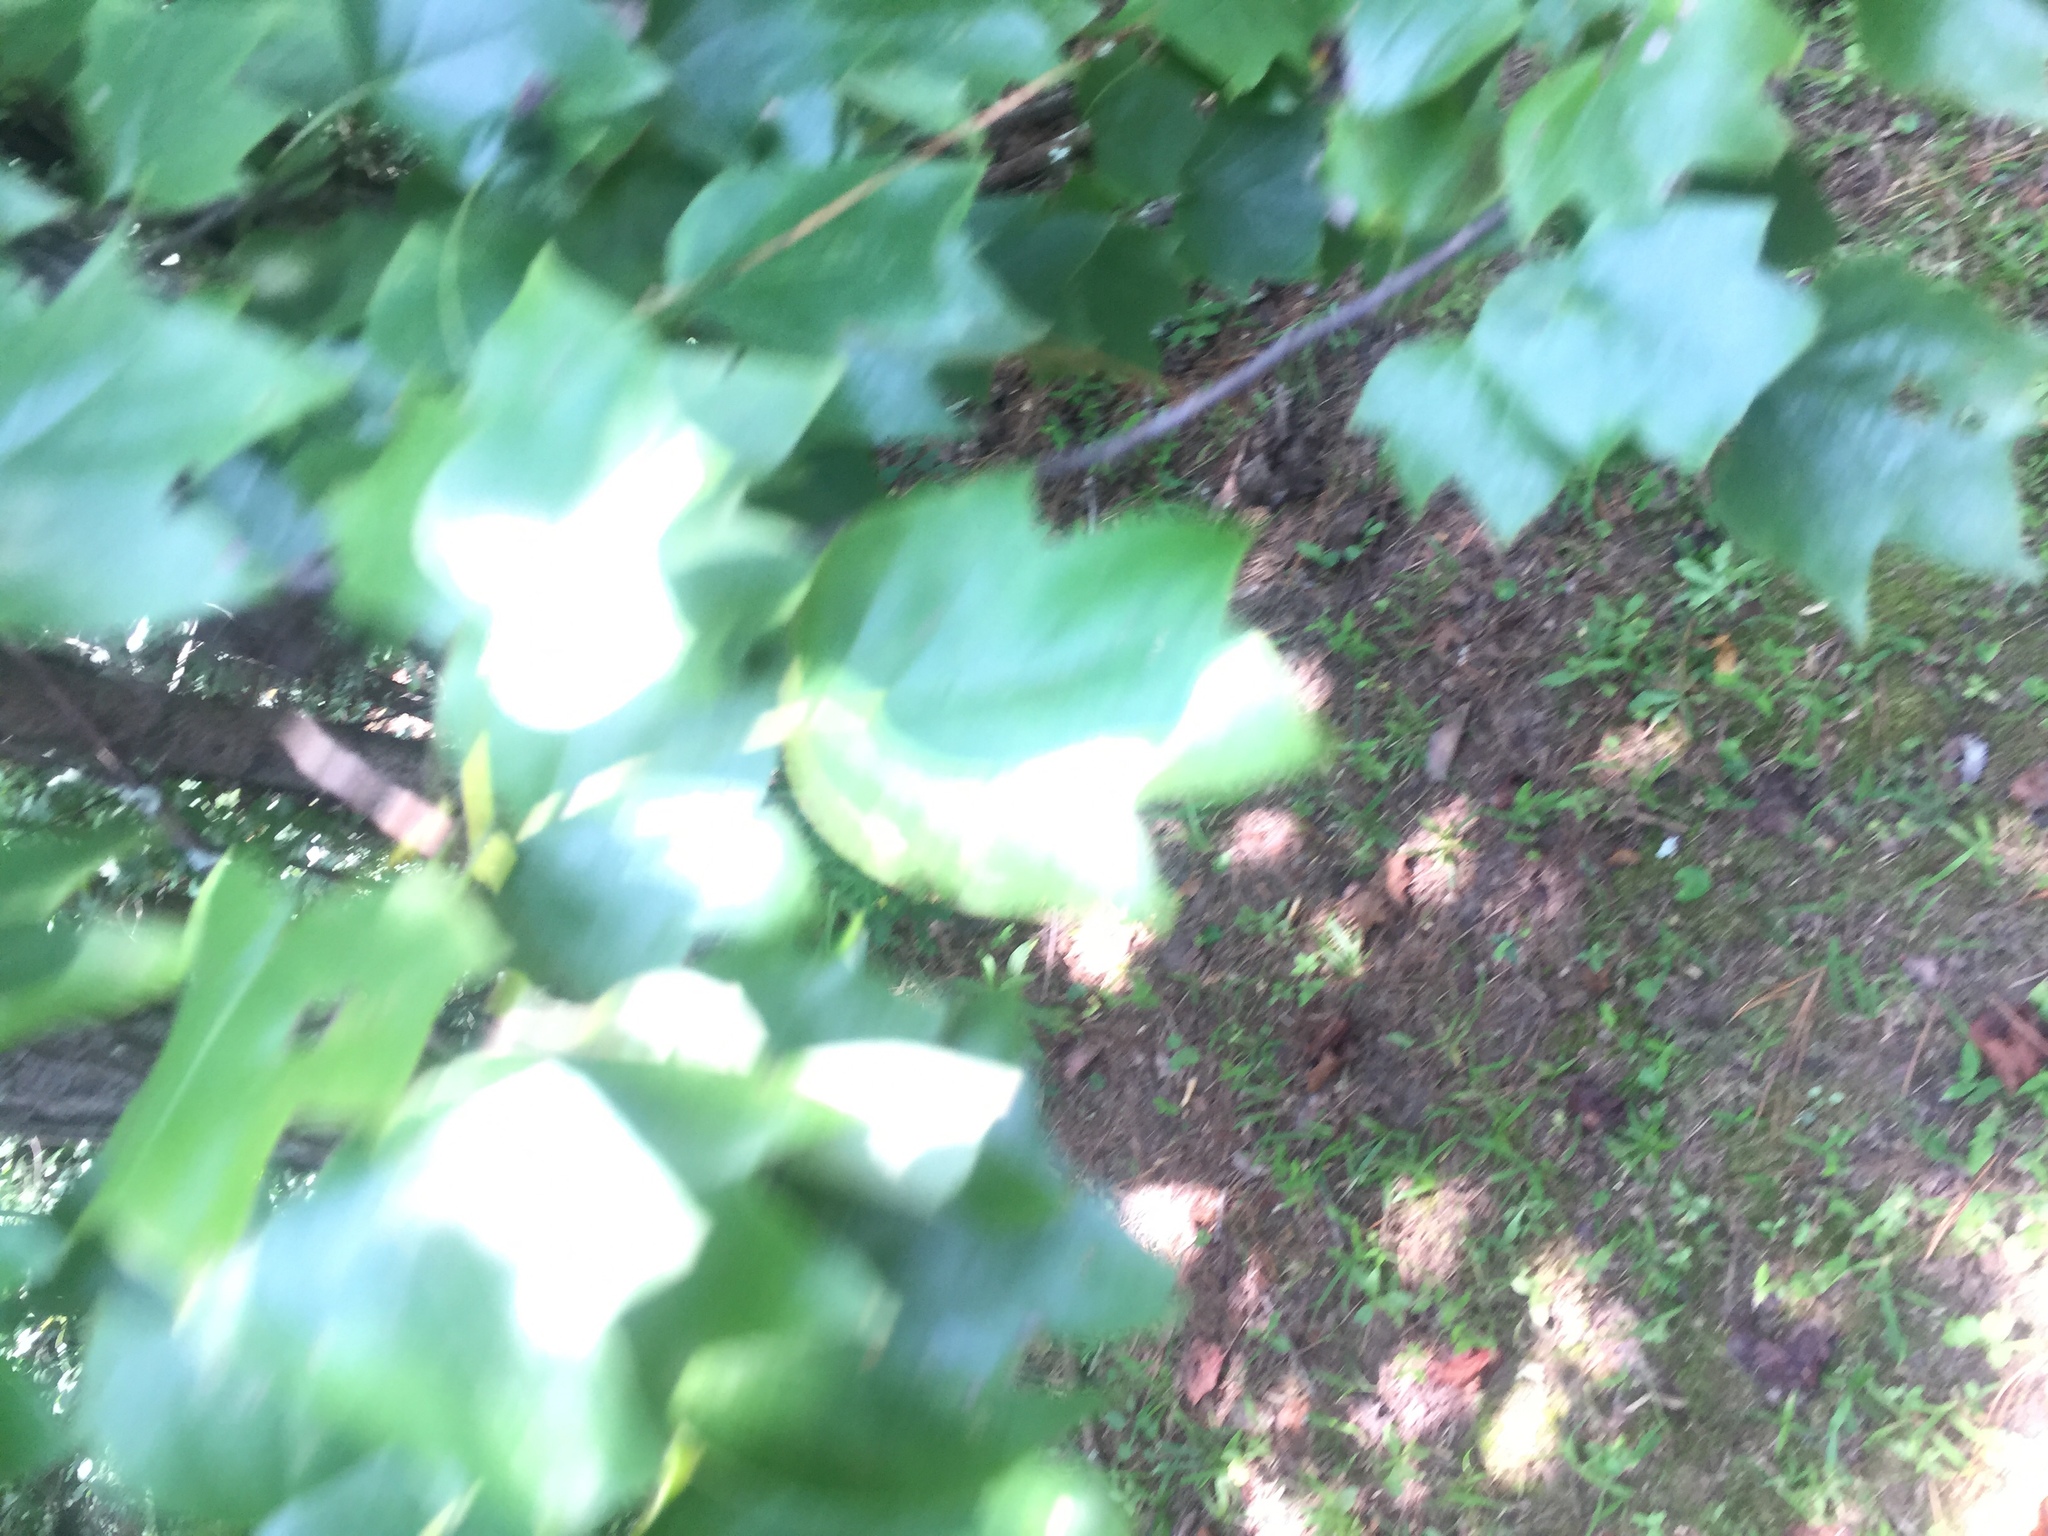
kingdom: Plantae
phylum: Tracheophyta
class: Magnoliopsida
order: Magnoliales
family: Magnoliaceae
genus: Liriodendron
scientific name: Liriodendron tulipifera
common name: Tulip tree
